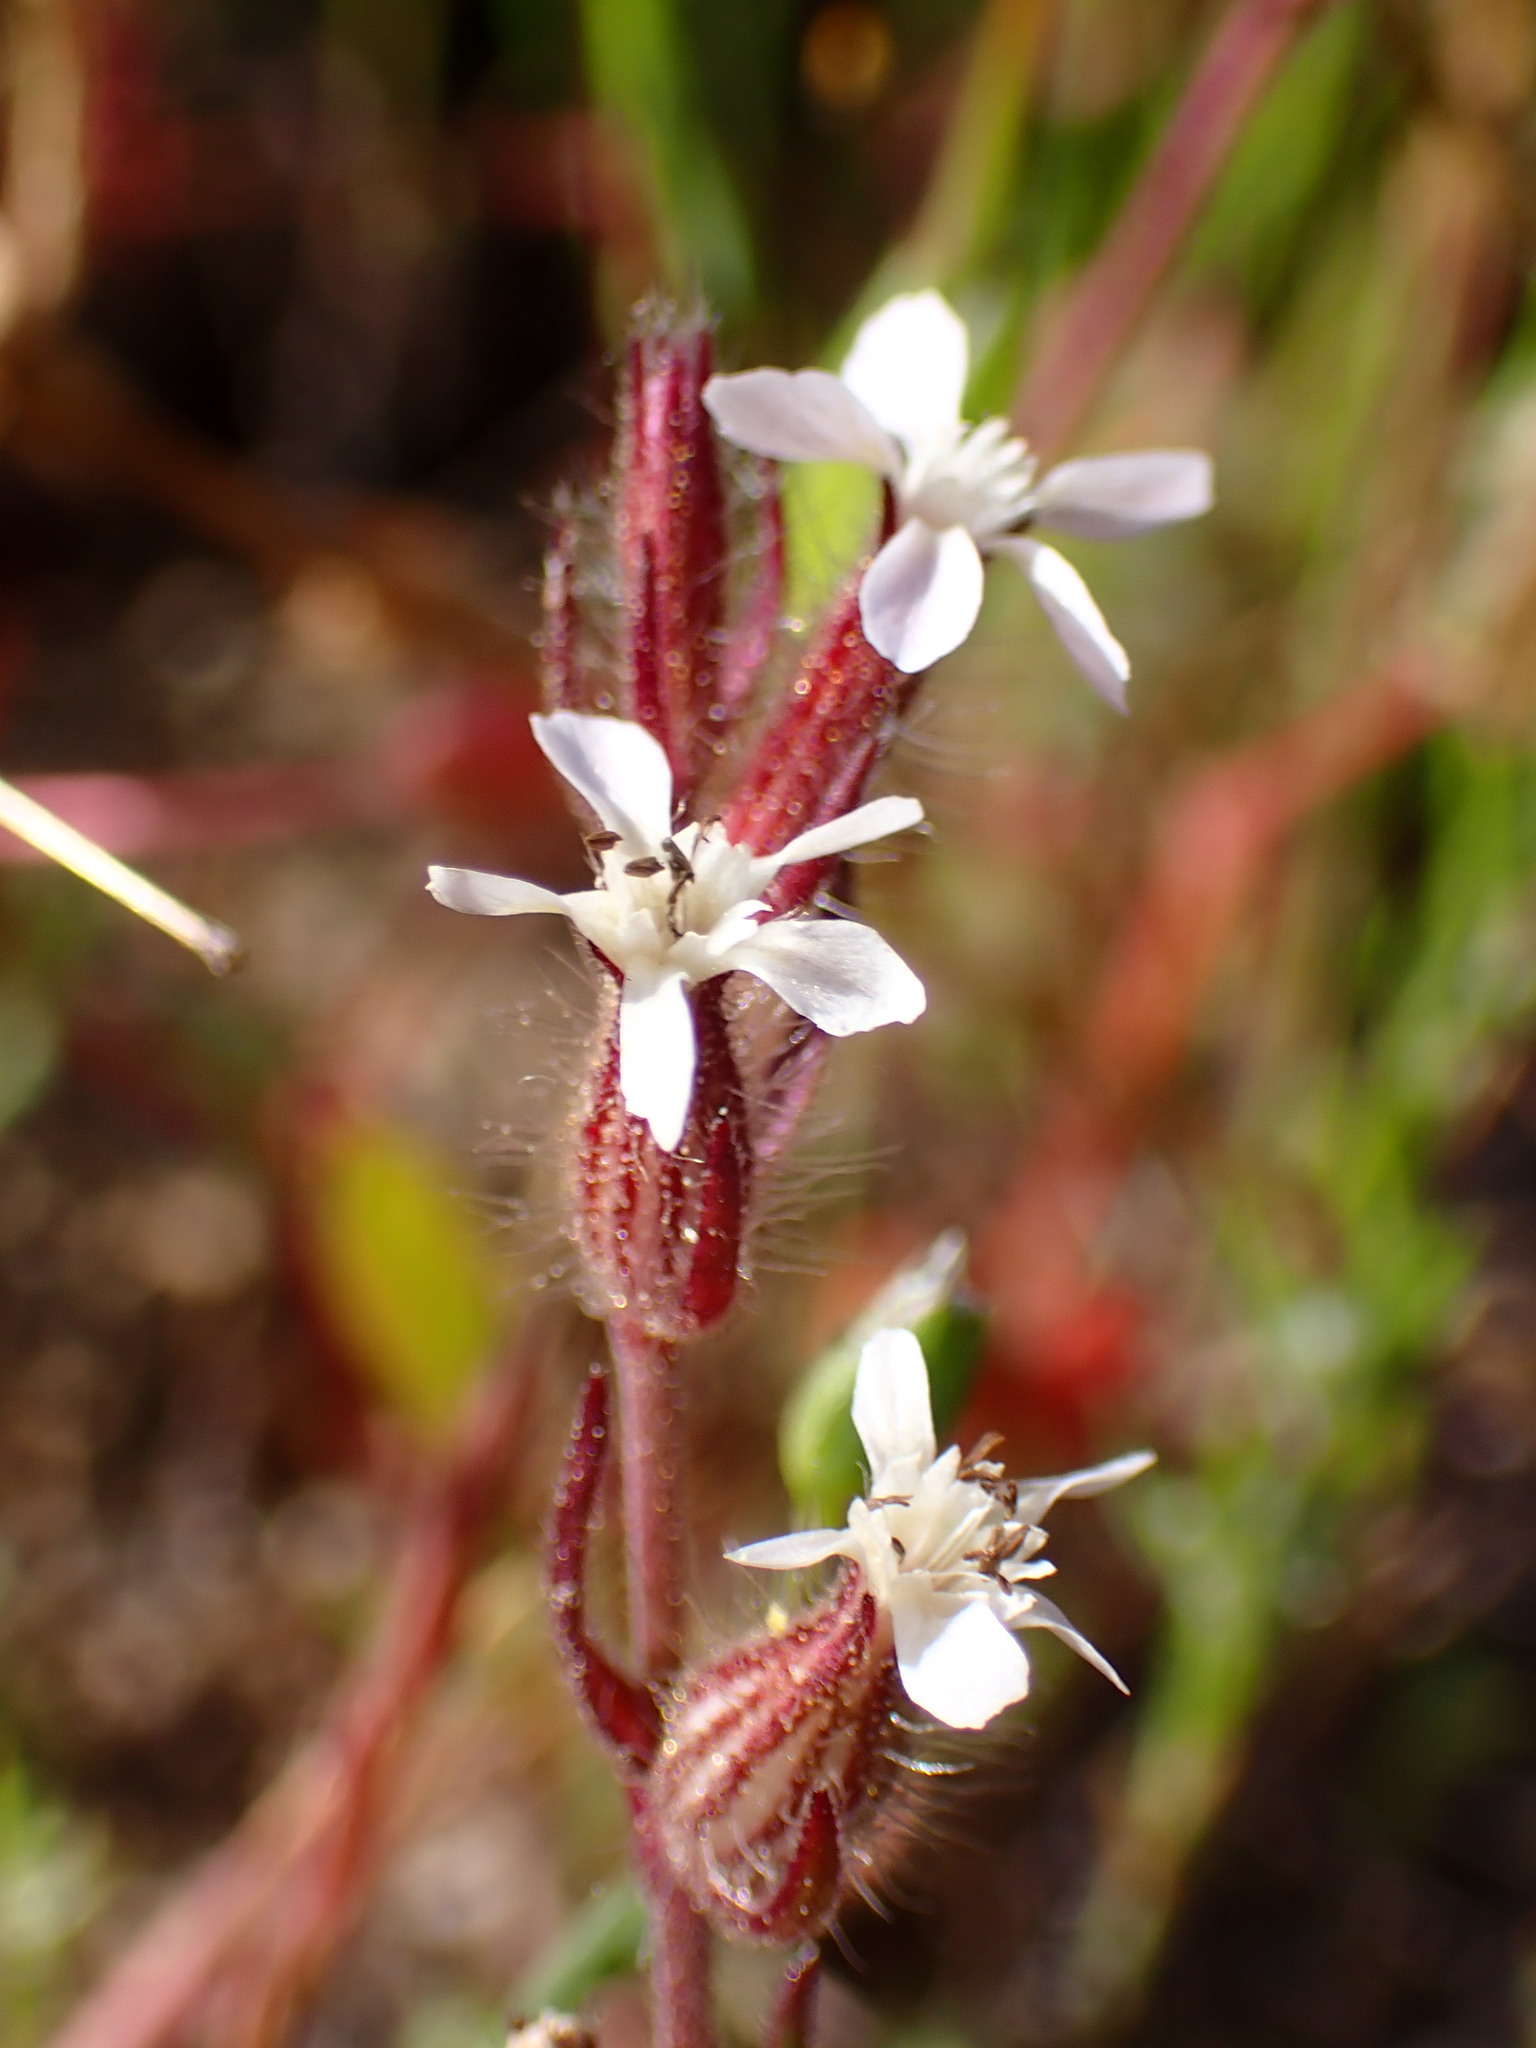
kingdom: Plantae
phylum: Tracheophyta
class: Magnoliopsida
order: Caryophyllales
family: Caryophyllaceae
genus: Silene
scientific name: Silene gallica
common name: Small-flowered catchfly
